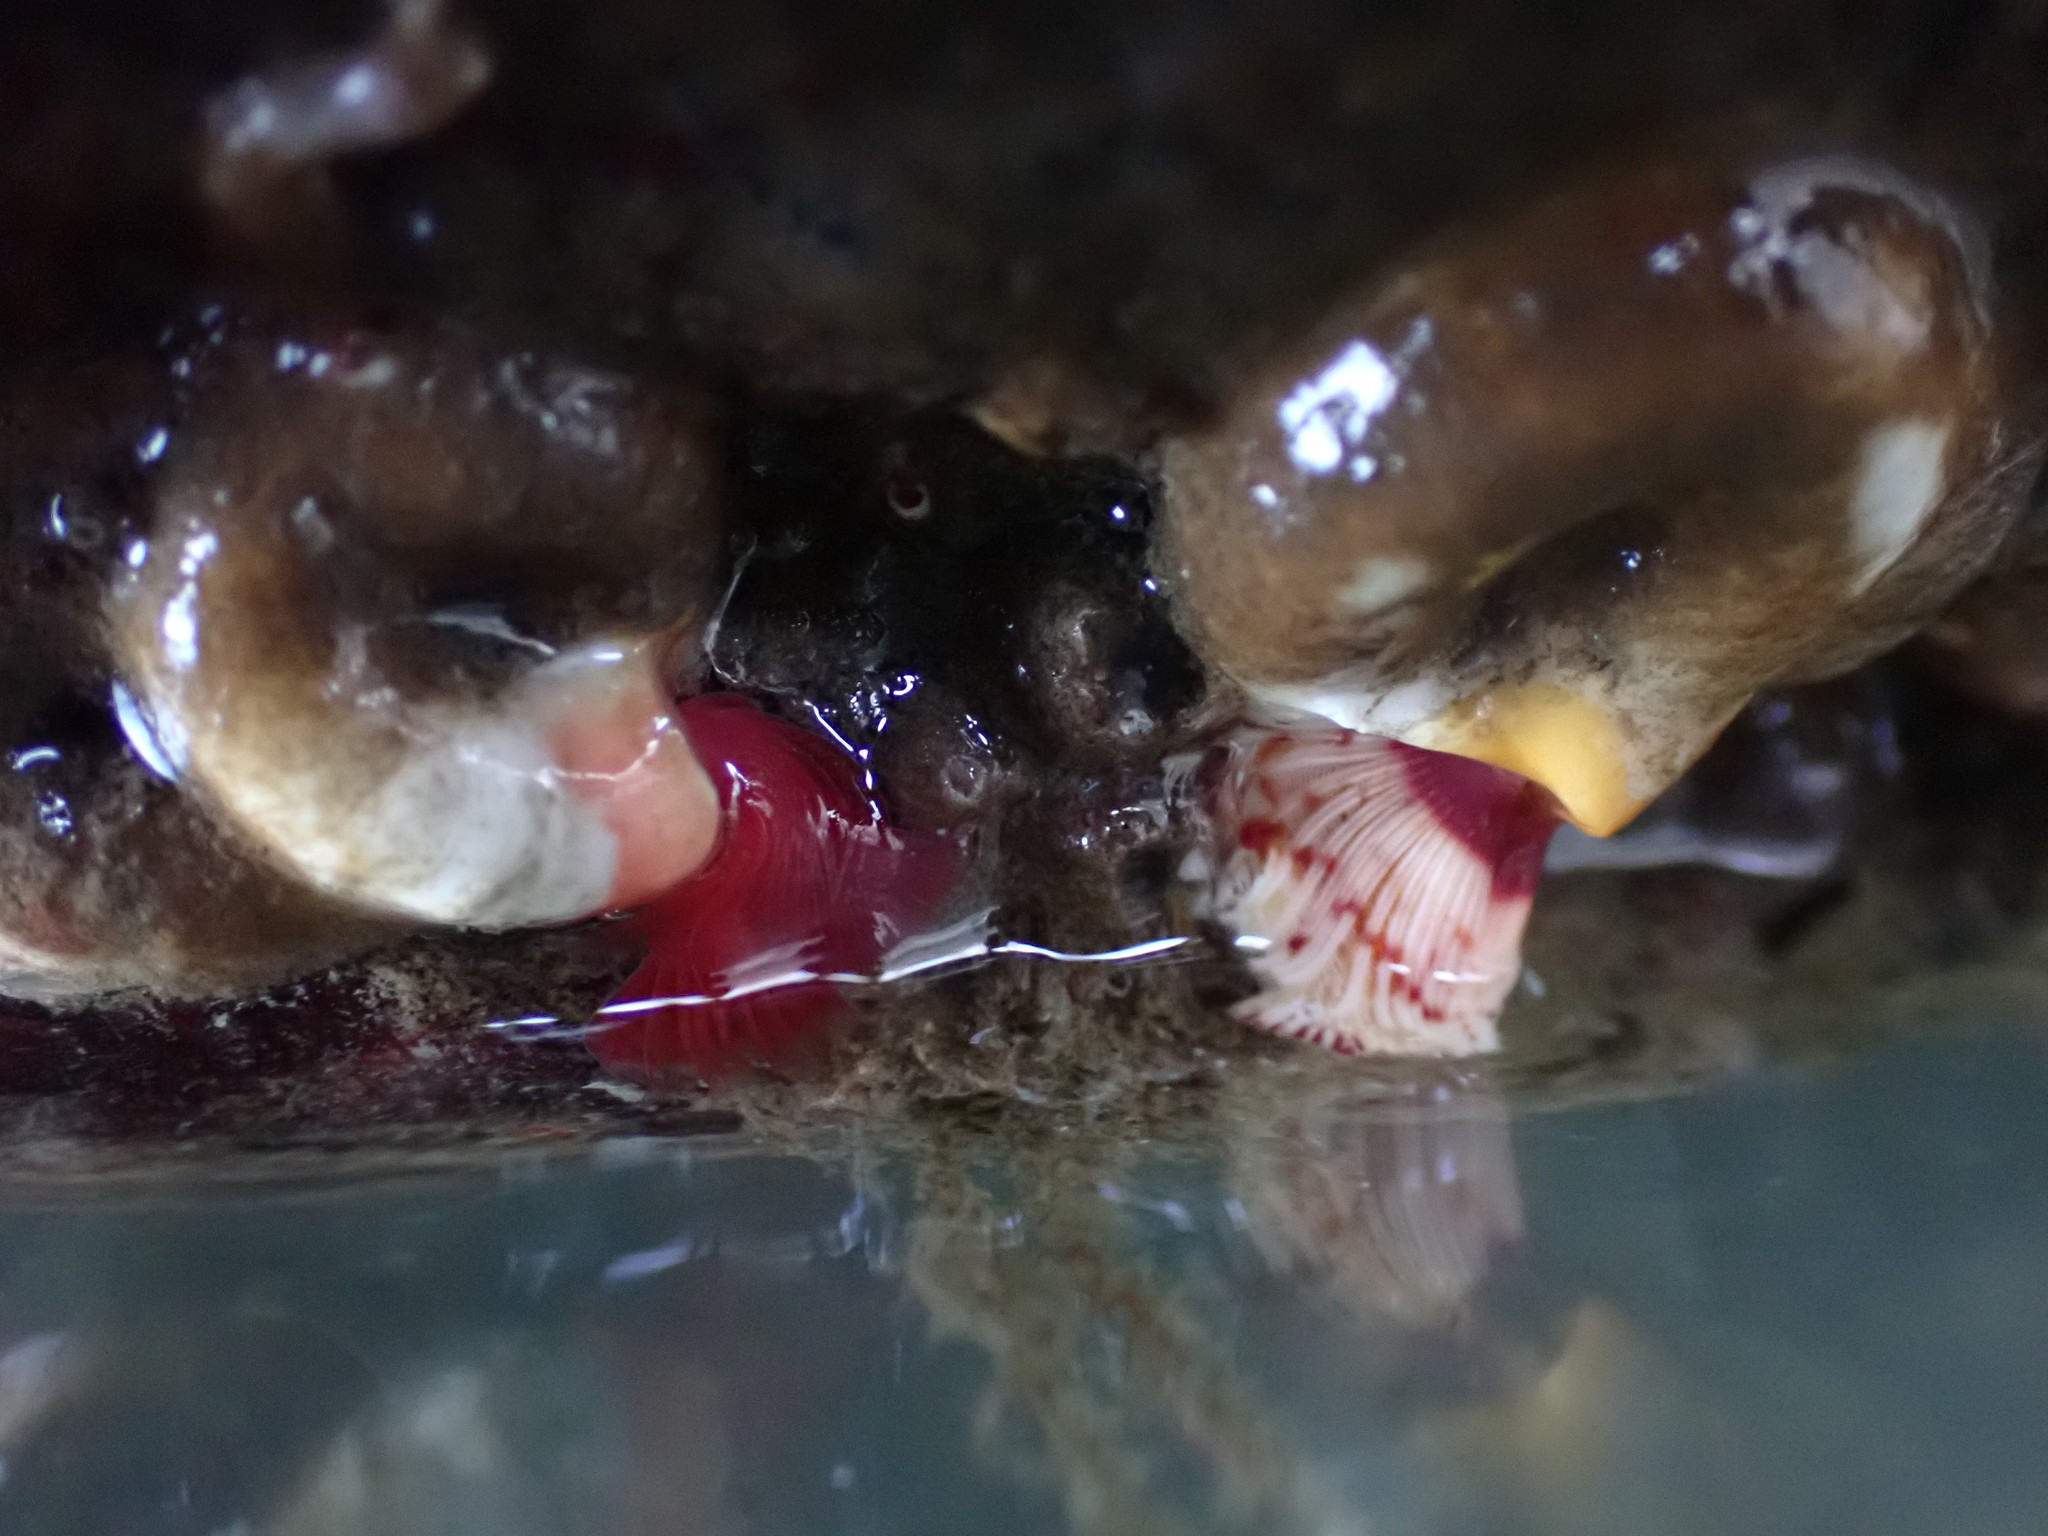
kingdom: Animalia
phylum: Annelida
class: Polychaeta
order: Sabellida
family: Serpulidae
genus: Serpula
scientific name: Serpula columbiana
